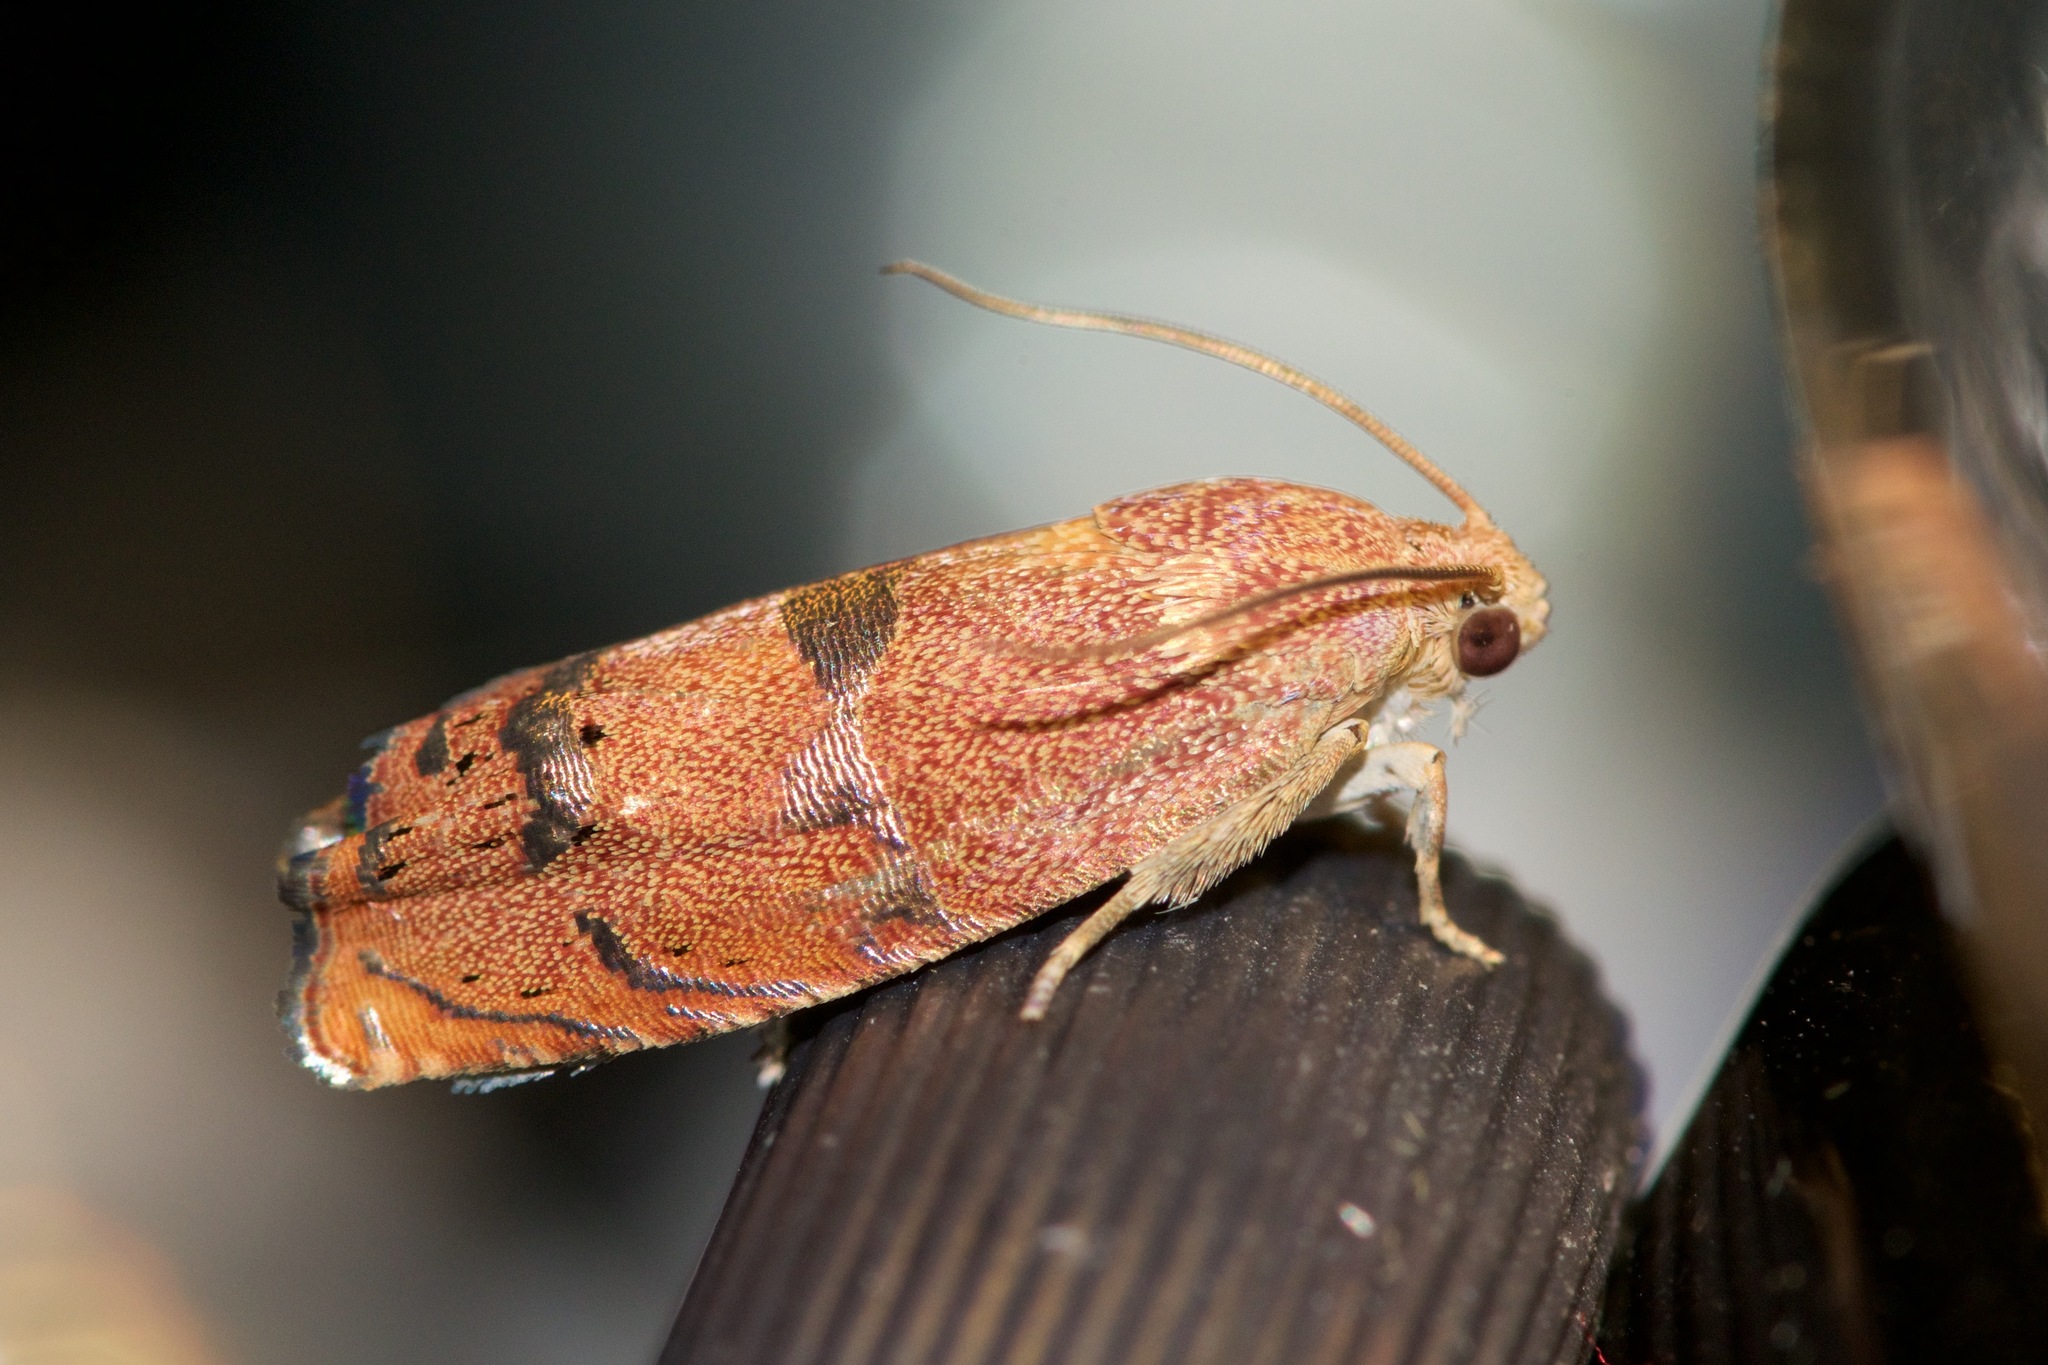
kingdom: Animalia
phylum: Arthropoda
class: Insecta
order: Lepidoptera
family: Tortricidae
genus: Cydia
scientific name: Cydia latiferreana
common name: Filbertworm moth
